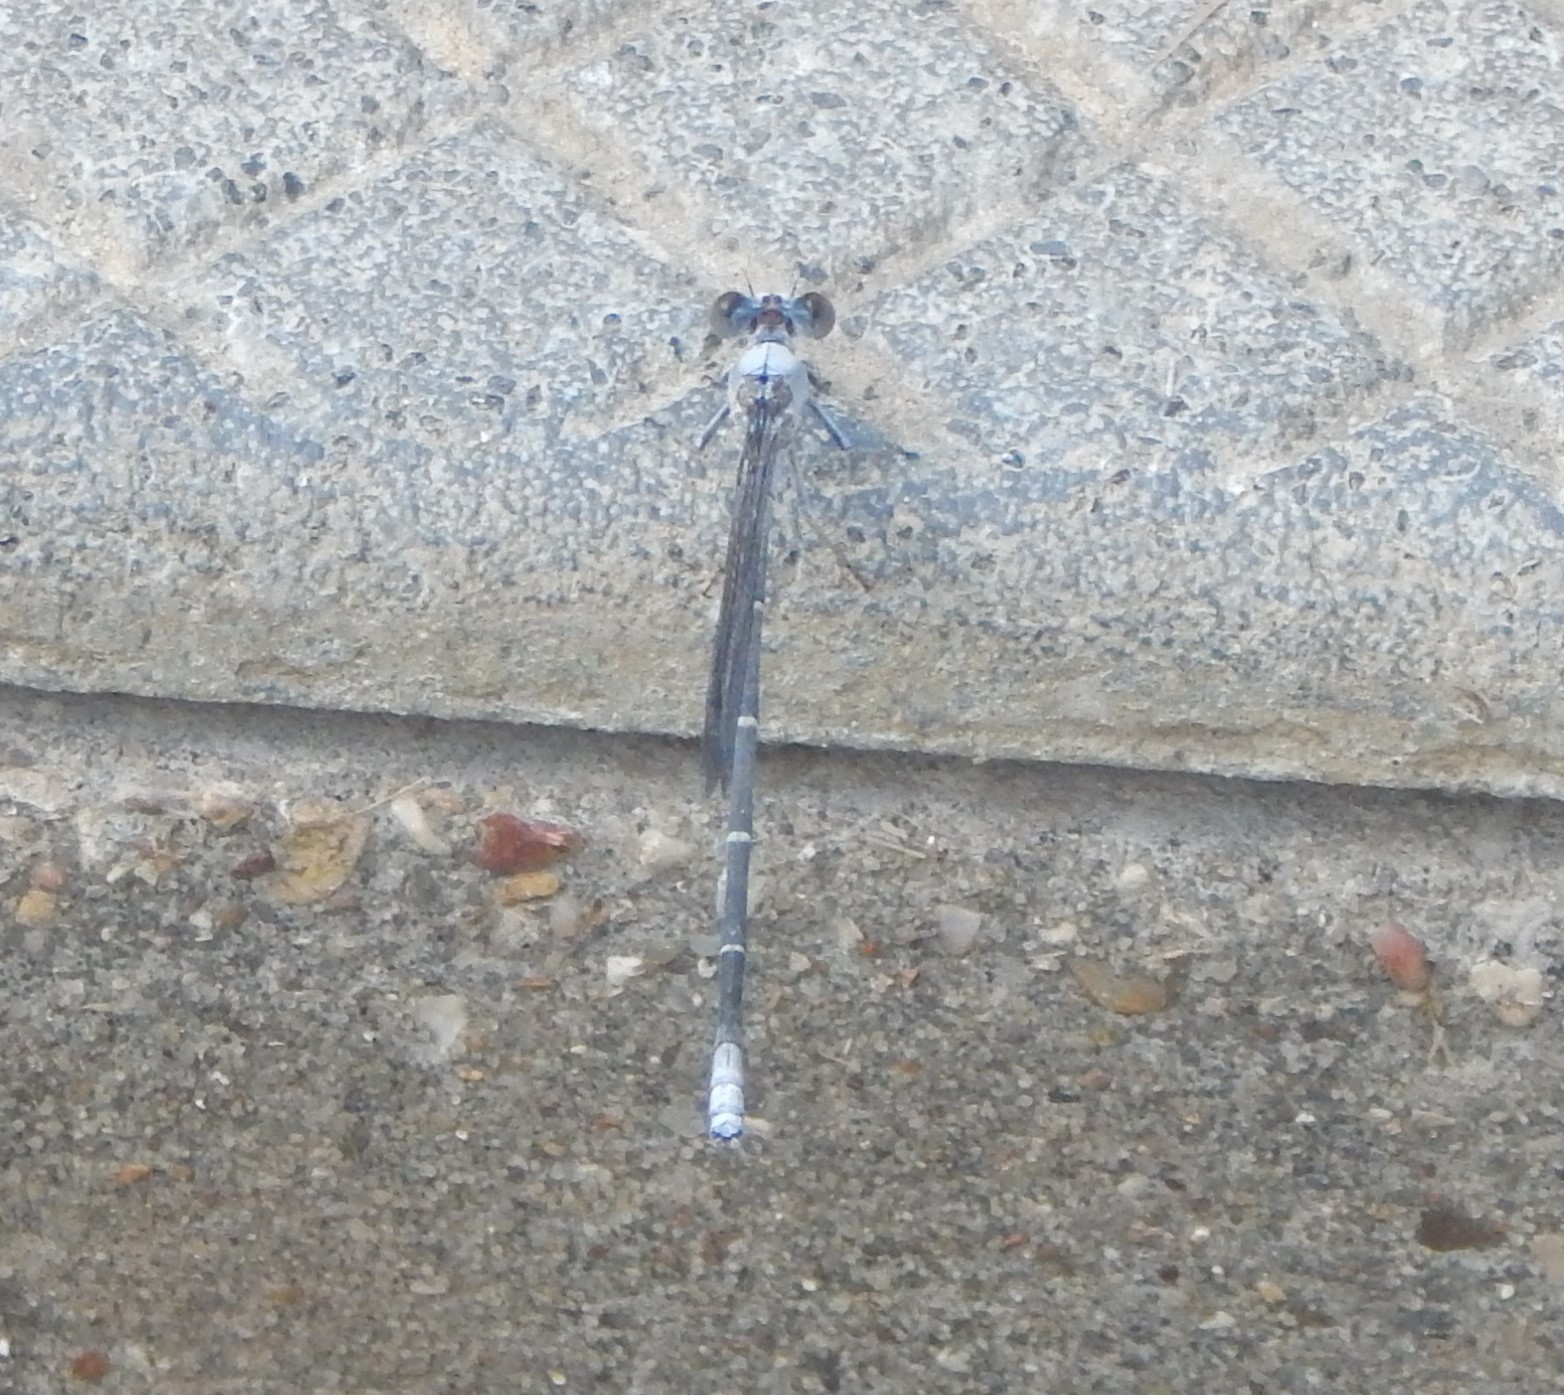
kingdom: Animalia
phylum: Arthropoda
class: Insecta
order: Odonata
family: Coenagrionidae
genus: Argia
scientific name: Argia moesta
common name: Powdered dancer
